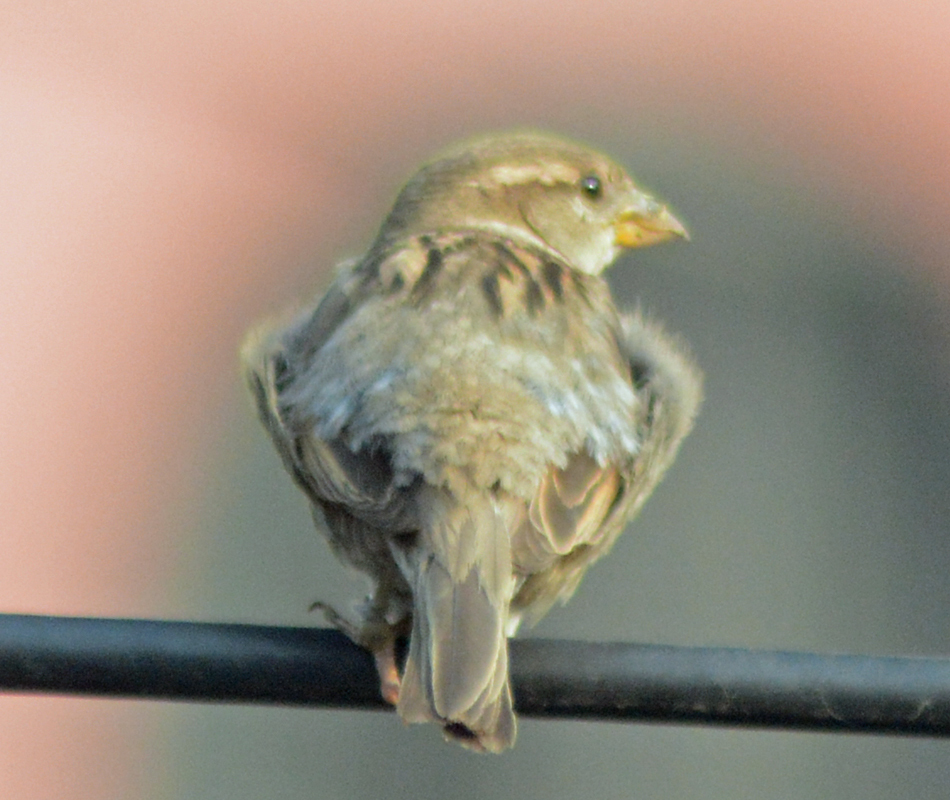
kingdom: Animalia
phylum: Chordata
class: Aves
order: Passeriformes
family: Passeridae
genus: Passer
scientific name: Passer domesticus
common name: House sparrow
